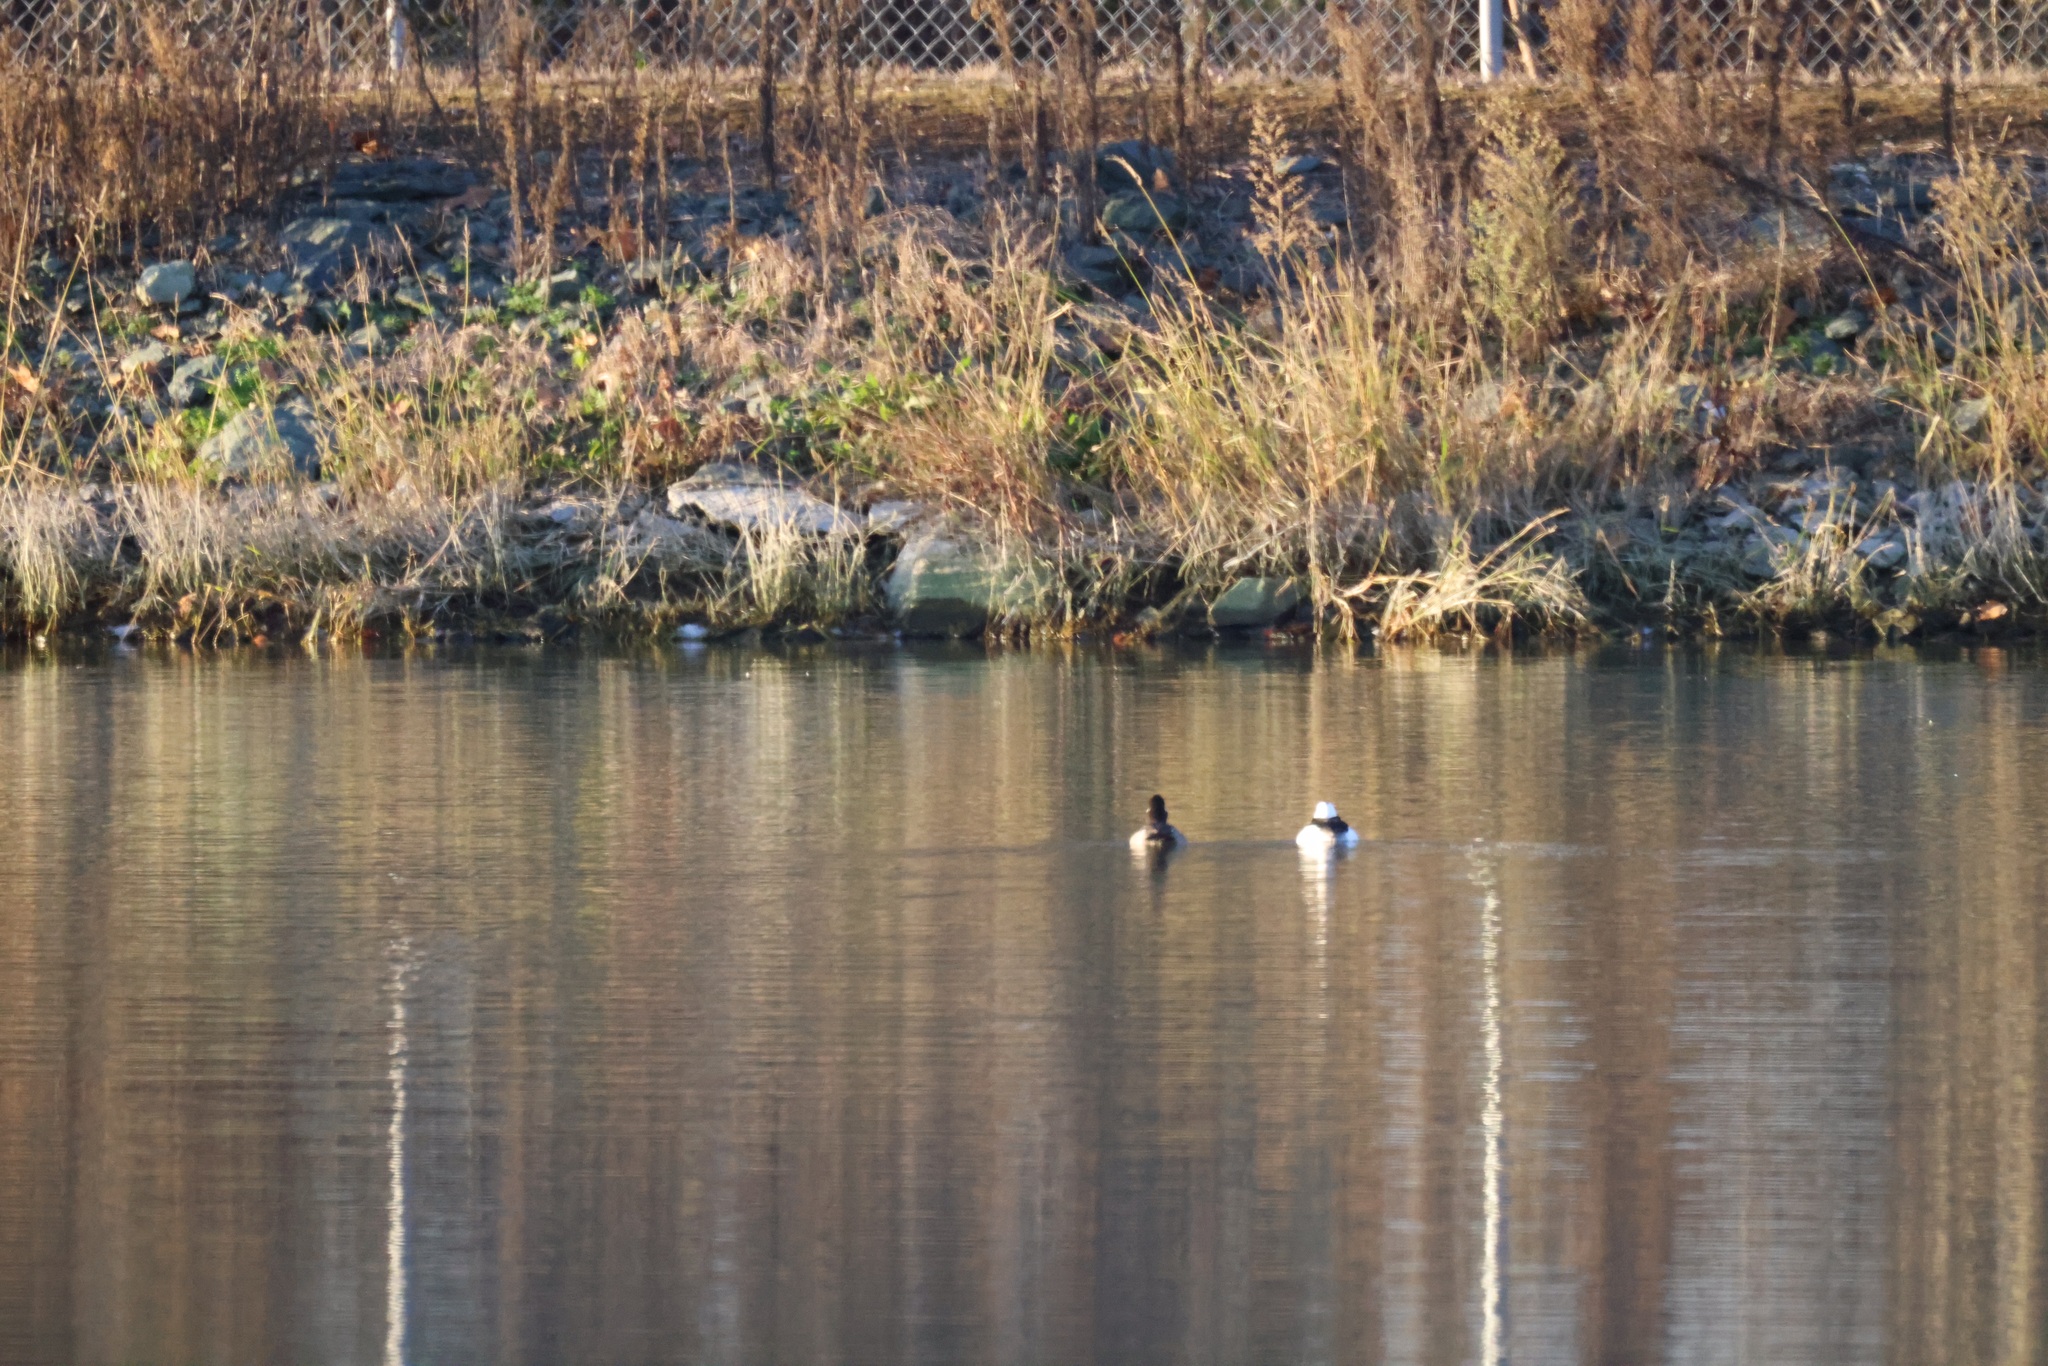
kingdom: Animalia
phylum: Chordata
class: Aves
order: Anseriformes
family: Anatidae
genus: Bucephala
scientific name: Bucephala albeola
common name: Bufflehead
